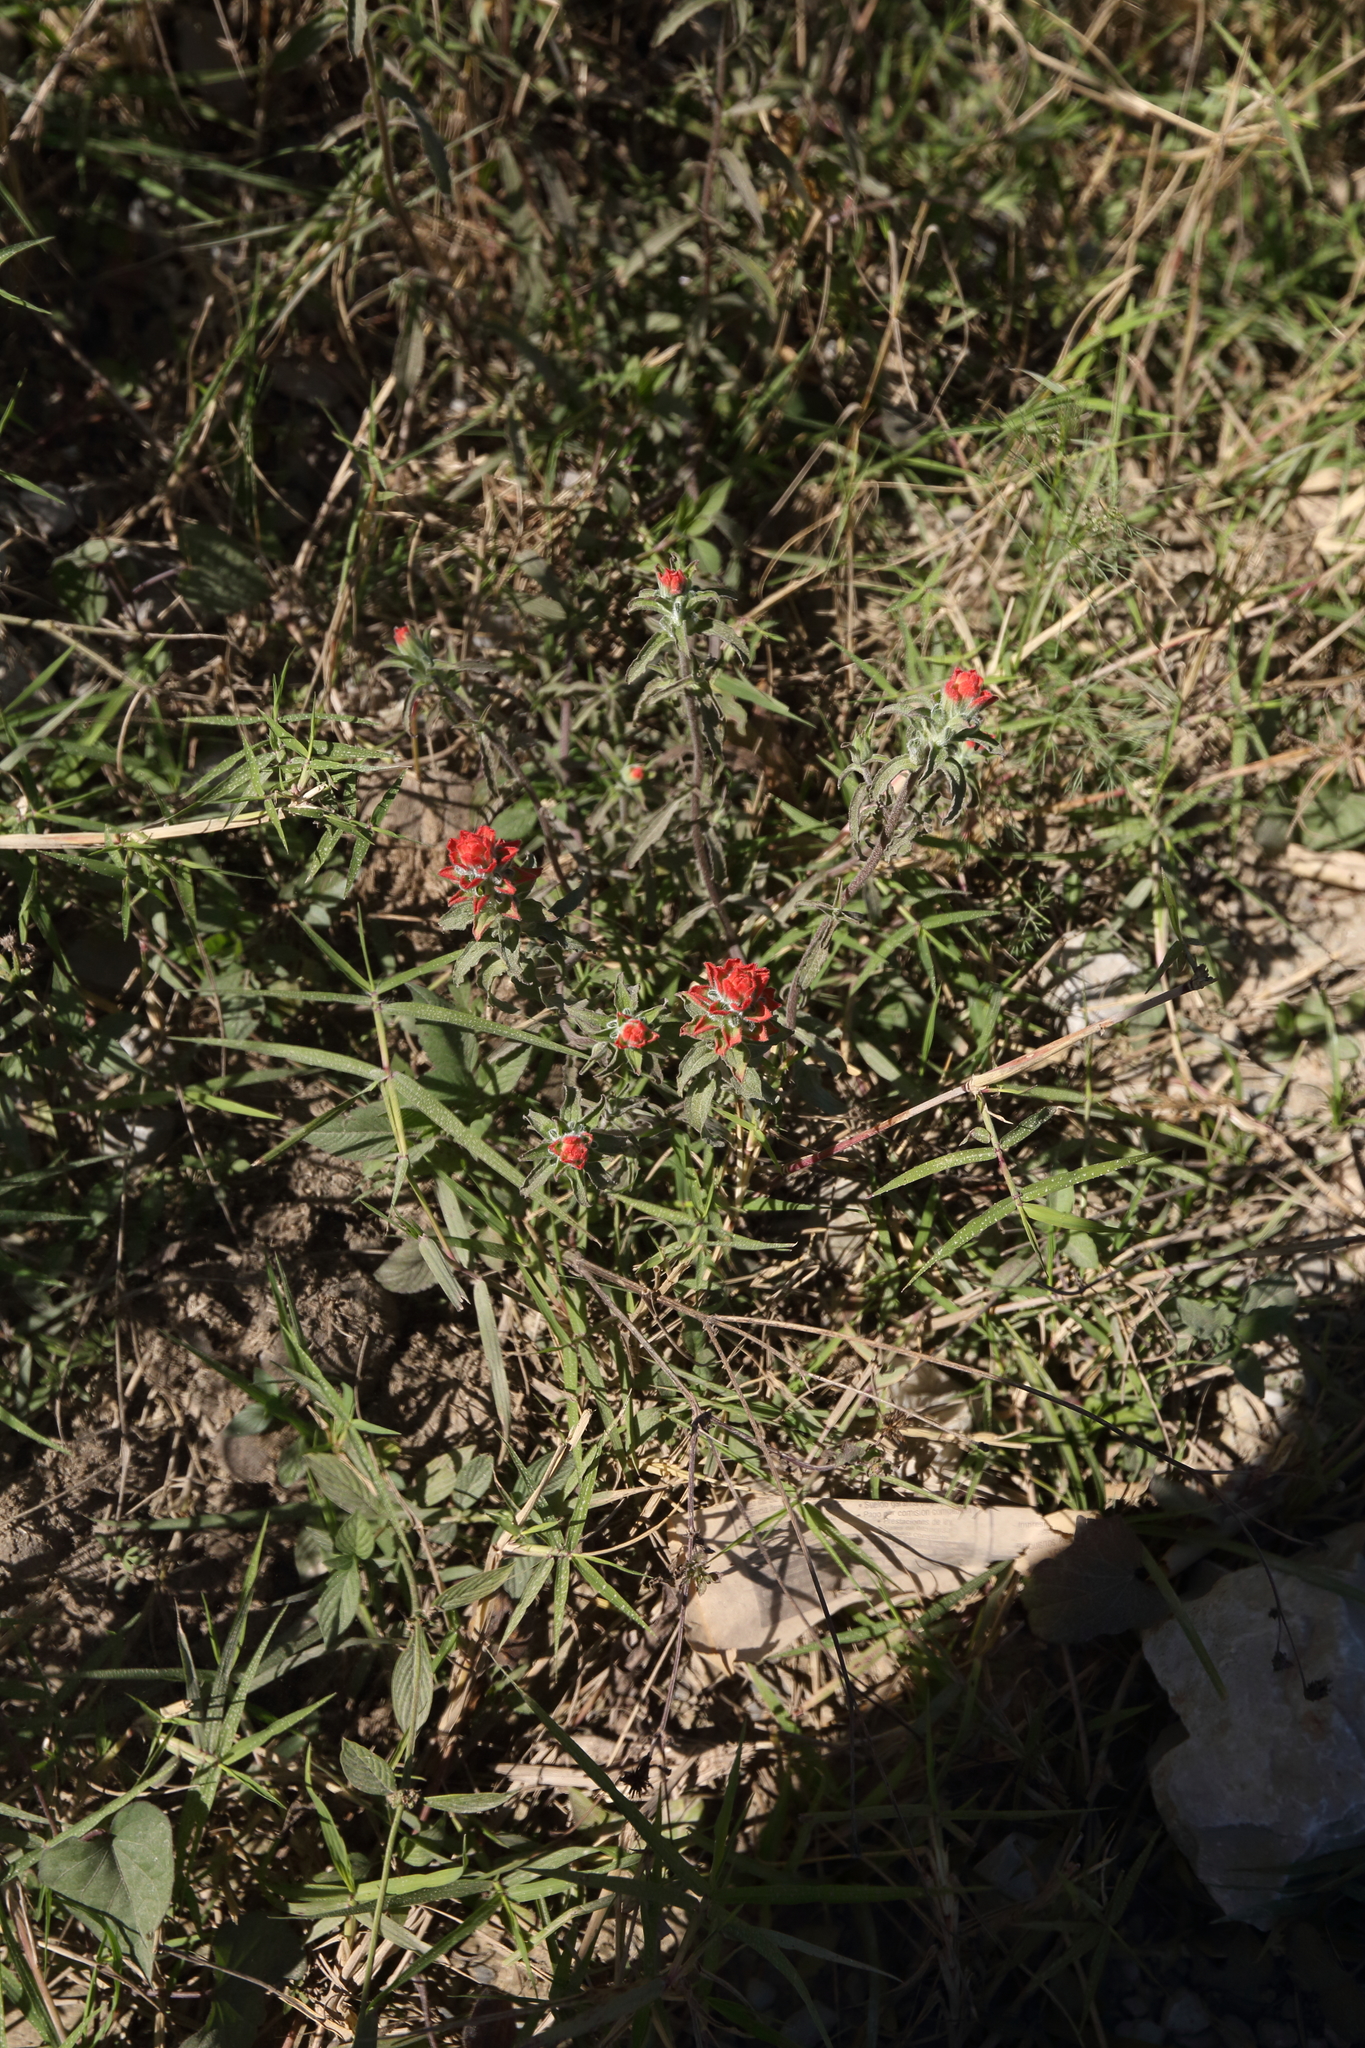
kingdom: Plantae
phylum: Tracheophyta
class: Magnoliopsida
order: Lamiales
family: Orobanchaceae
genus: Castilleja
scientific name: Castilleja arvensis
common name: Indian paintbrush
